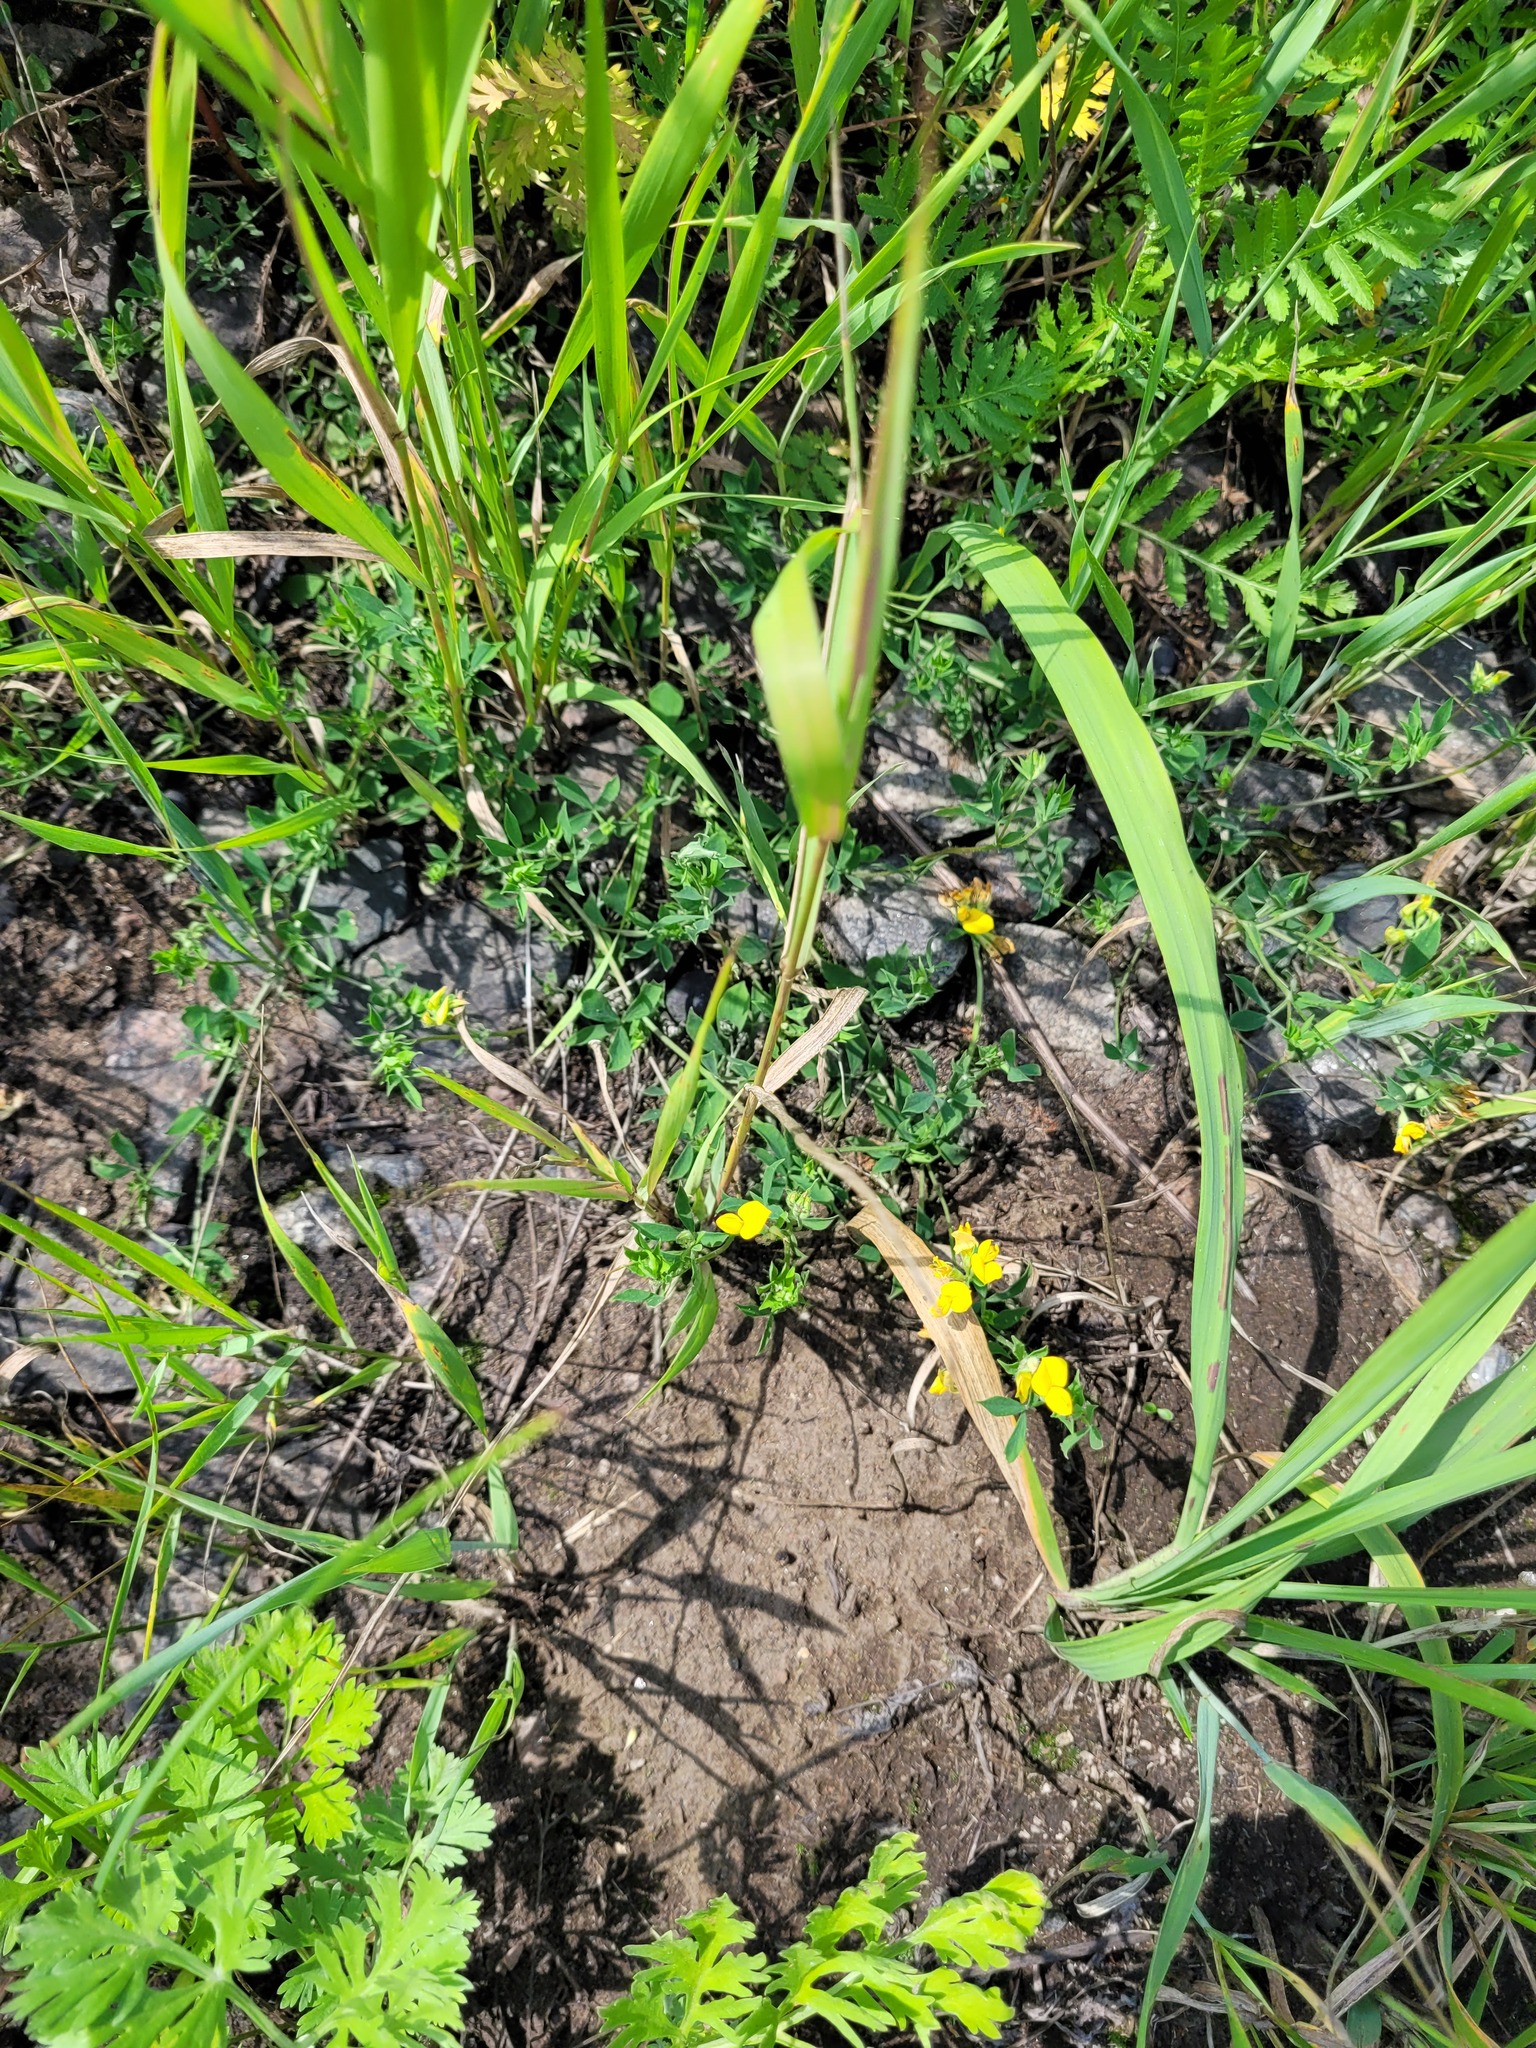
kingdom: Plantae
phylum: Tracheophyta
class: Magnoliopsida
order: Fabales
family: Fabaceae
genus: Lotus
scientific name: Lotus corniculatus
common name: Common bird's-foot-trefoil
